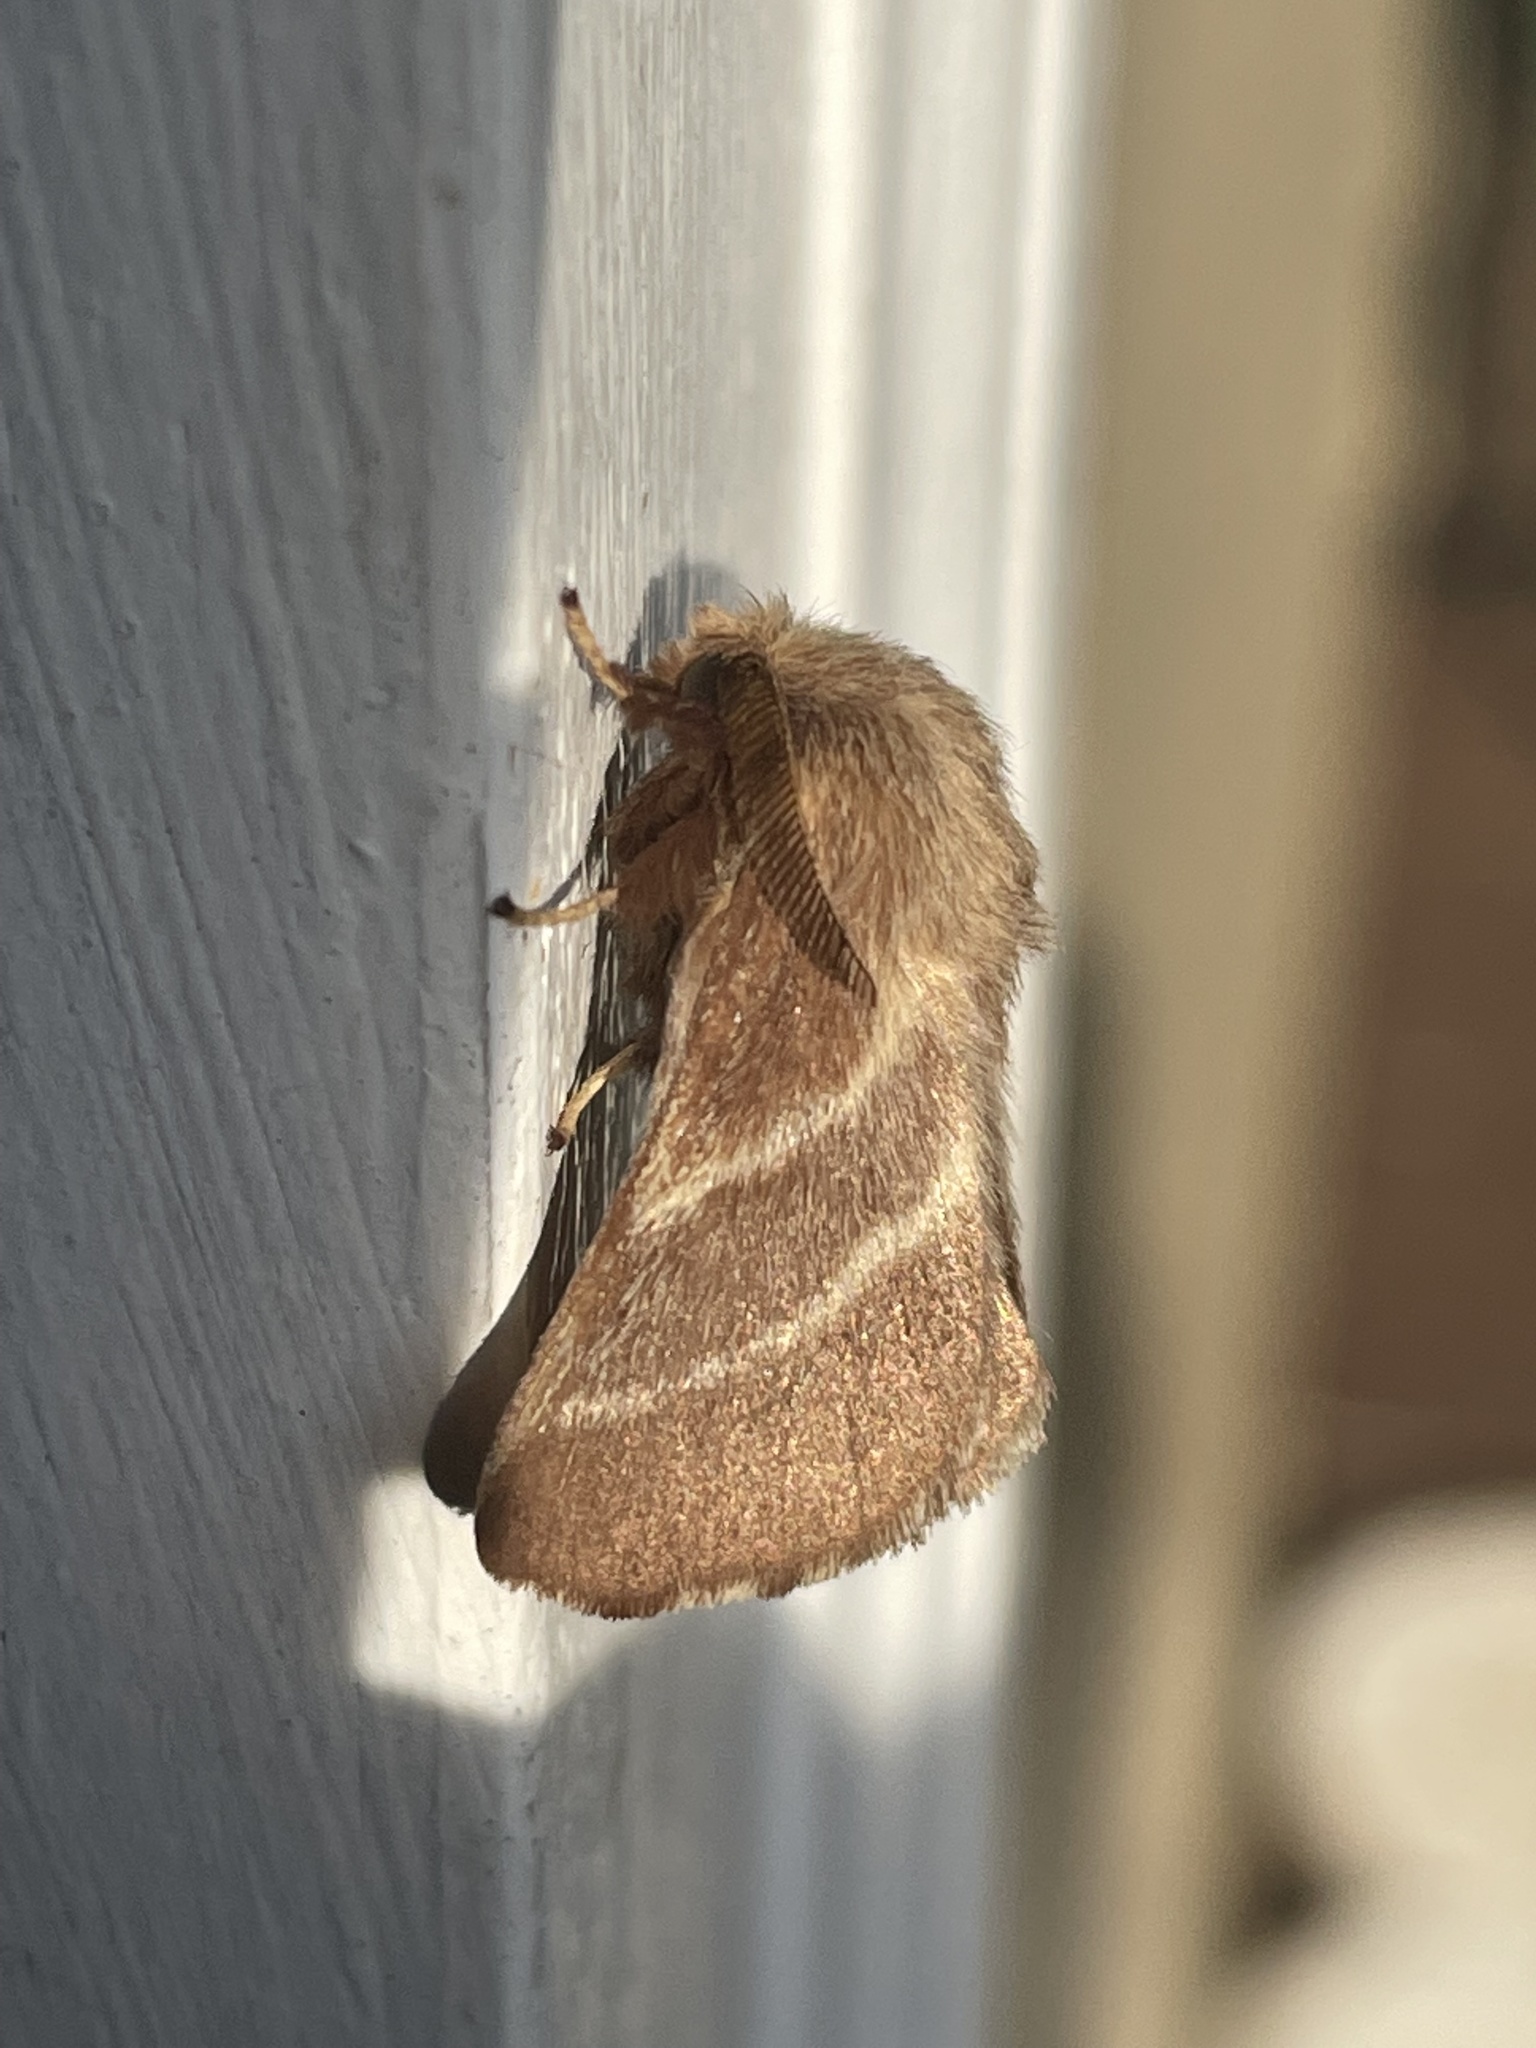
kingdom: Animalia
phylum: Arthropoda
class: Insecta
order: Lepidoptera
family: Lasiocampidae
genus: Malacosoma
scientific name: Malacosoma americana
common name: Eastern tent caterpillar moth
